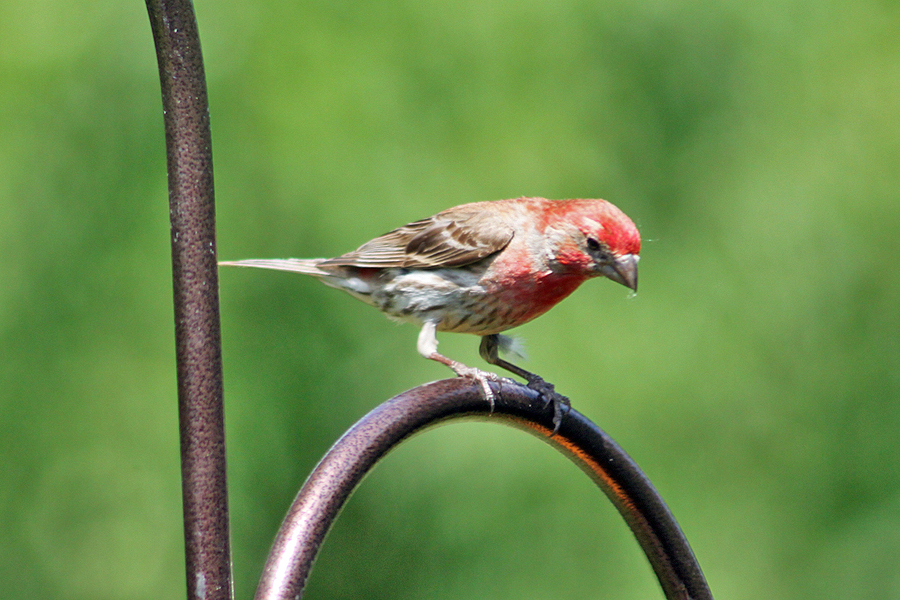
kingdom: Animalia
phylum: Chordata
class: Aves
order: Passeriformes
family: Fringillidae
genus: Haemorhous
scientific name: Haemorhous mexicanus
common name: House finch
